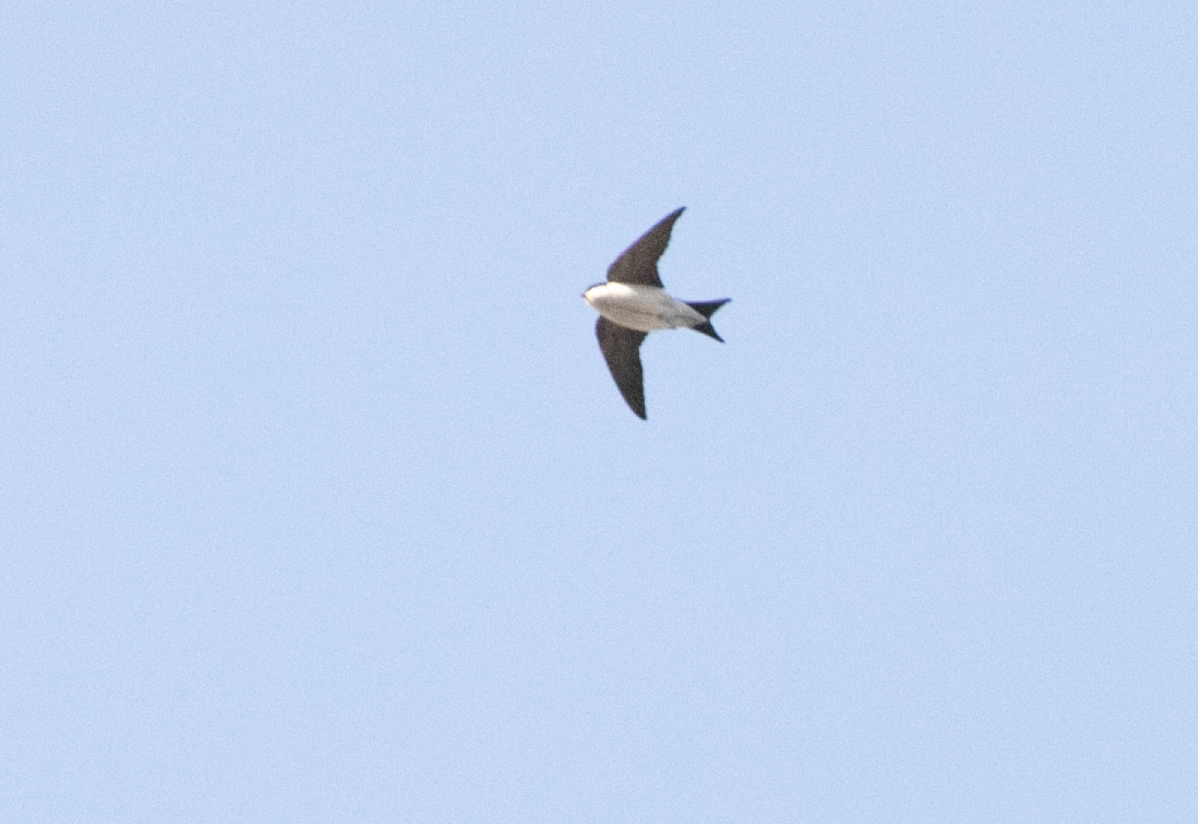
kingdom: Animalia
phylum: Chordata
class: Aves
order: Passeriformes
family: Hirundinidae
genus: Delichon
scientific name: Delichon urbicum
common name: Common house martin
